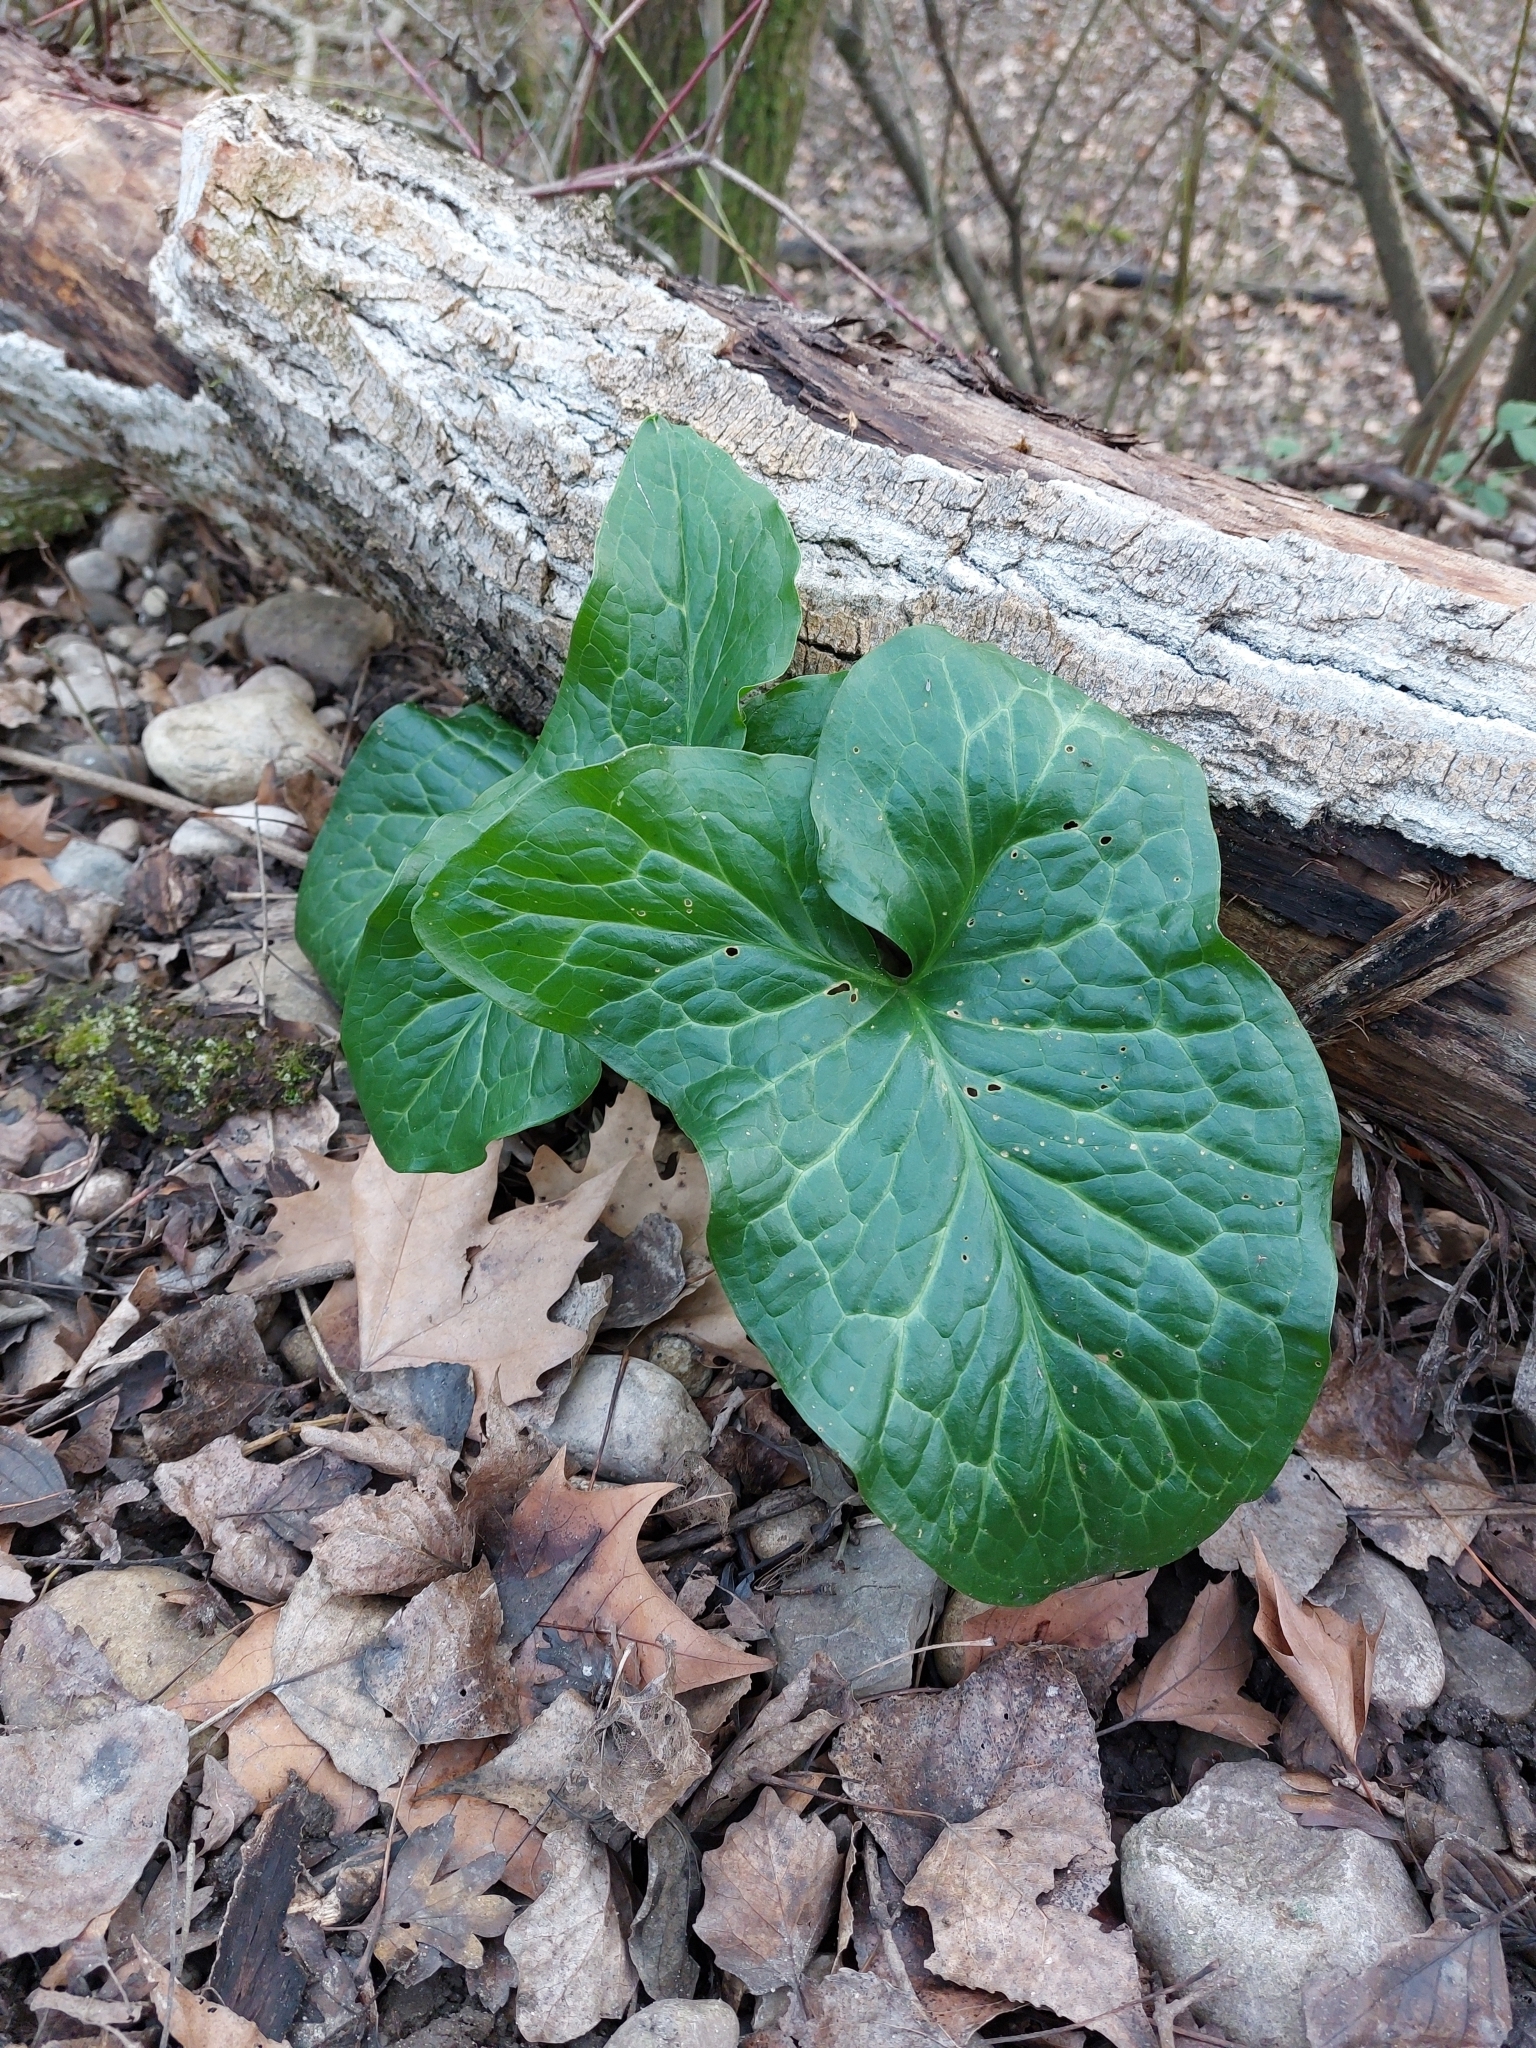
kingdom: Plantae
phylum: Tracheophyta
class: Liliopsida
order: Alismatales
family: Araceae
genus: Arum
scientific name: Arum italicum
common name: Italian lords-and-ladies
